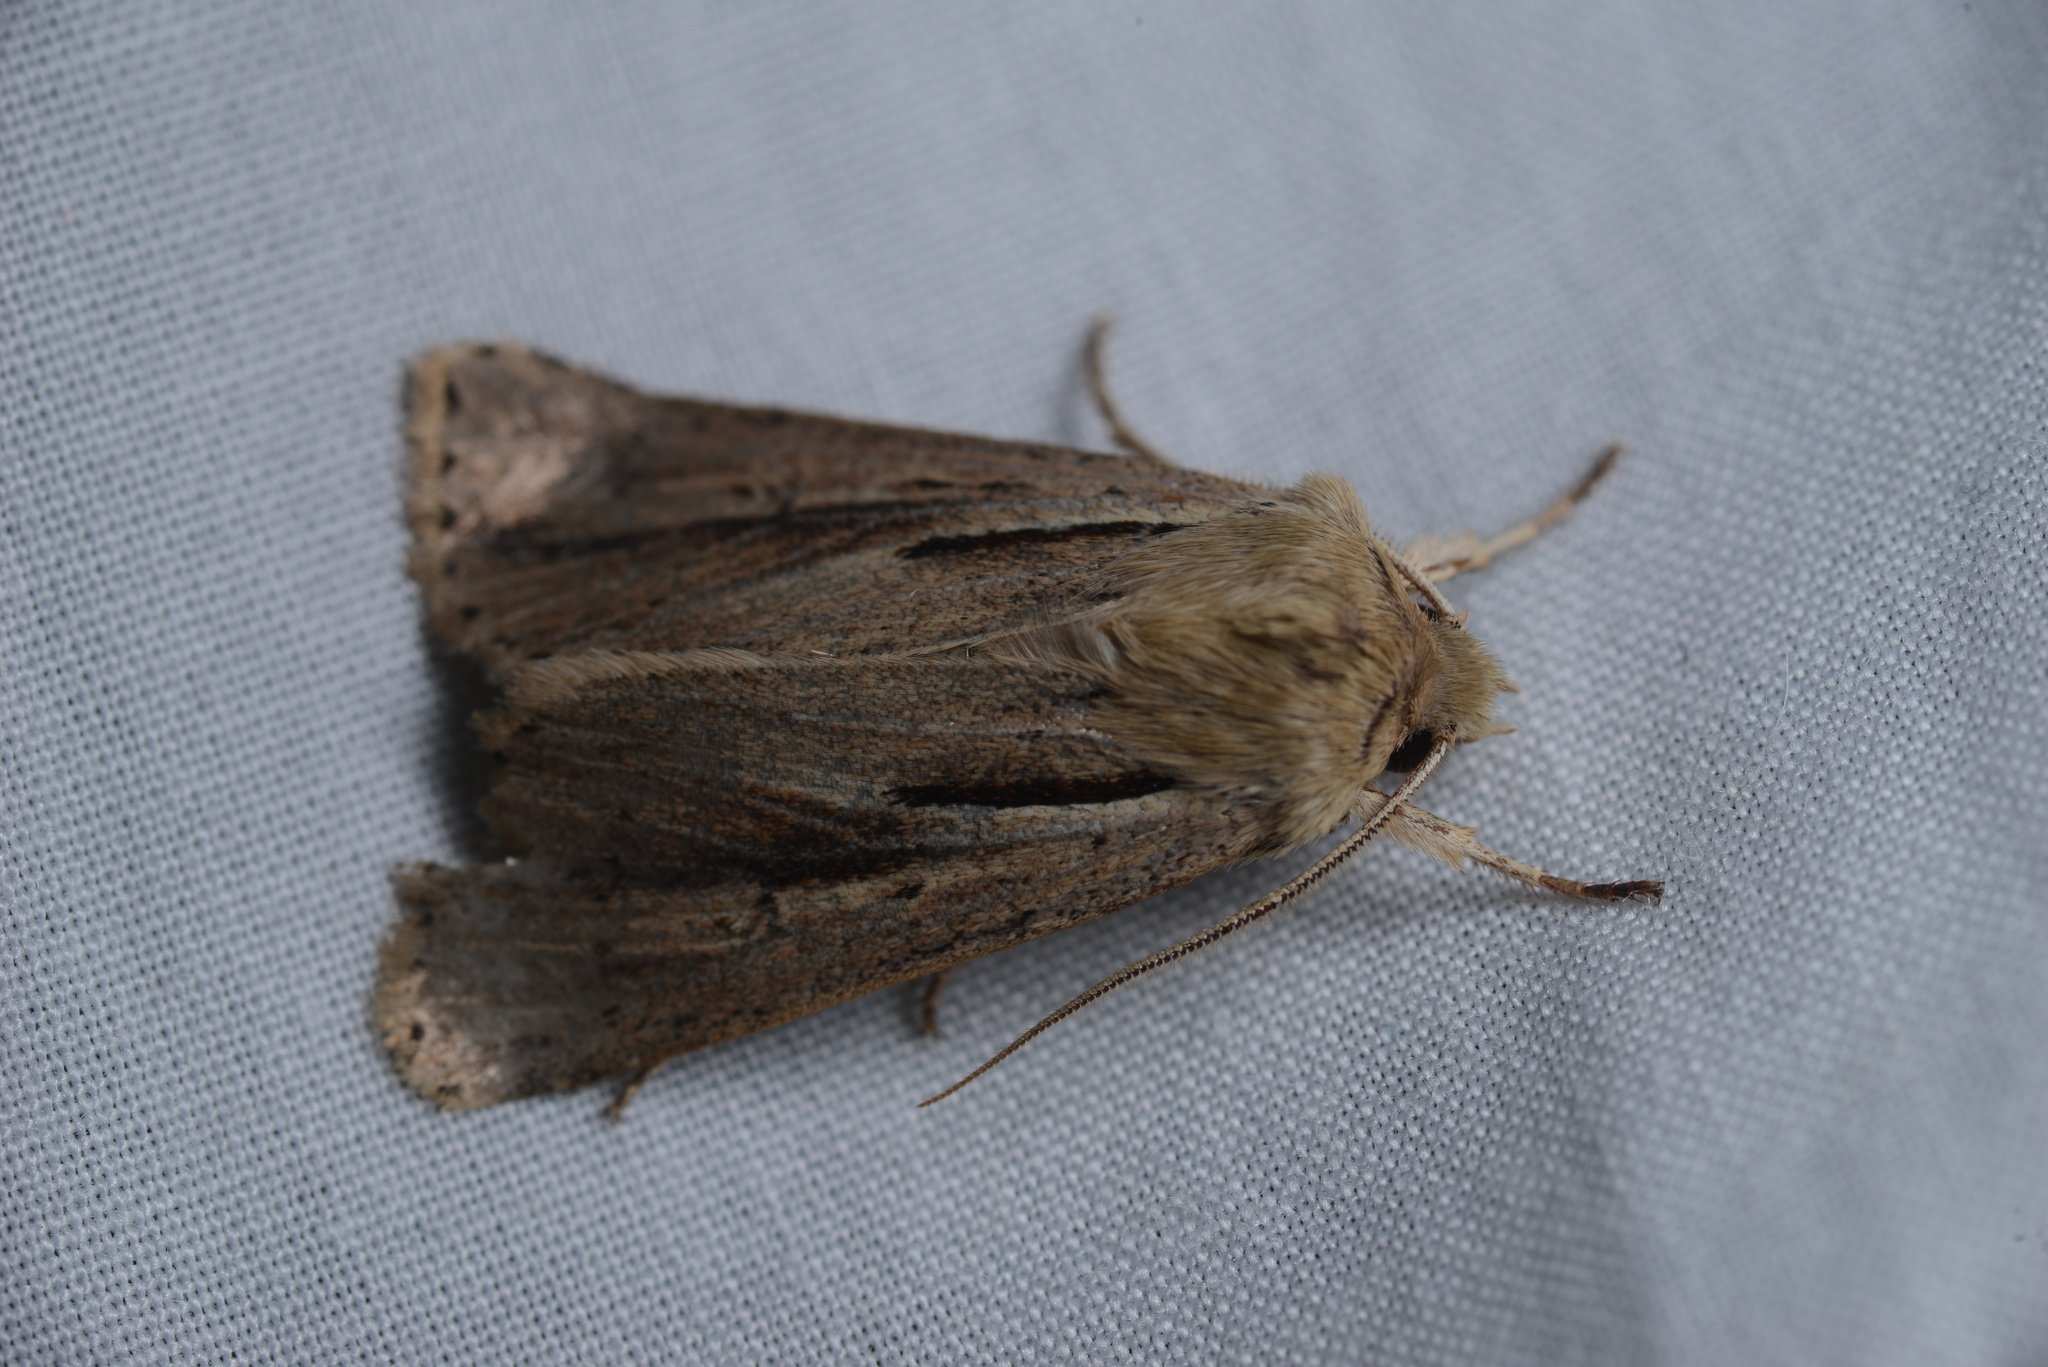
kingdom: Animalia
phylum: Arthropoda
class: Insecta
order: Lepidoptera
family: Noctuidae
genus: Ichneutica
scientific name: Ichneutica propria
